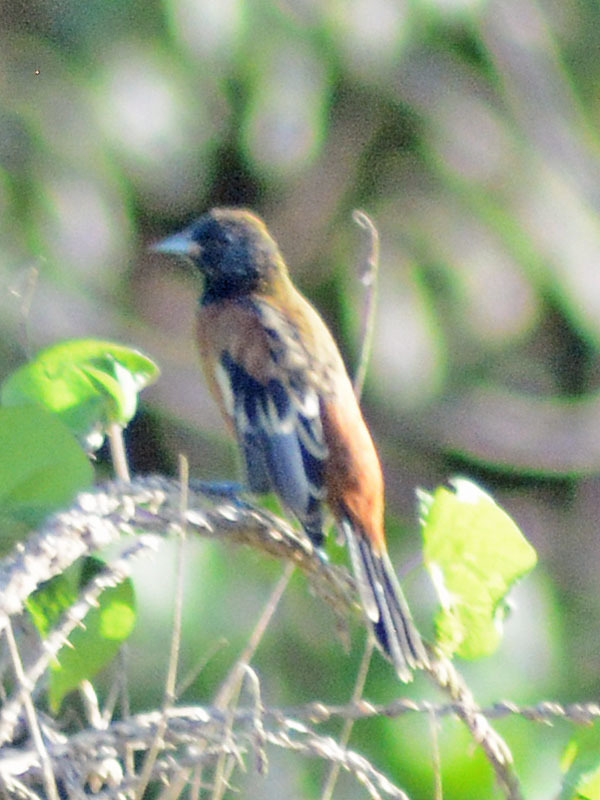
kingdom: Animalia
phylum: Chordata
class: Aves
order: Passeriformes
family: Icteridae
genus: Icterus
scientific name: Icterus spurius
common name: Orchard oriole
